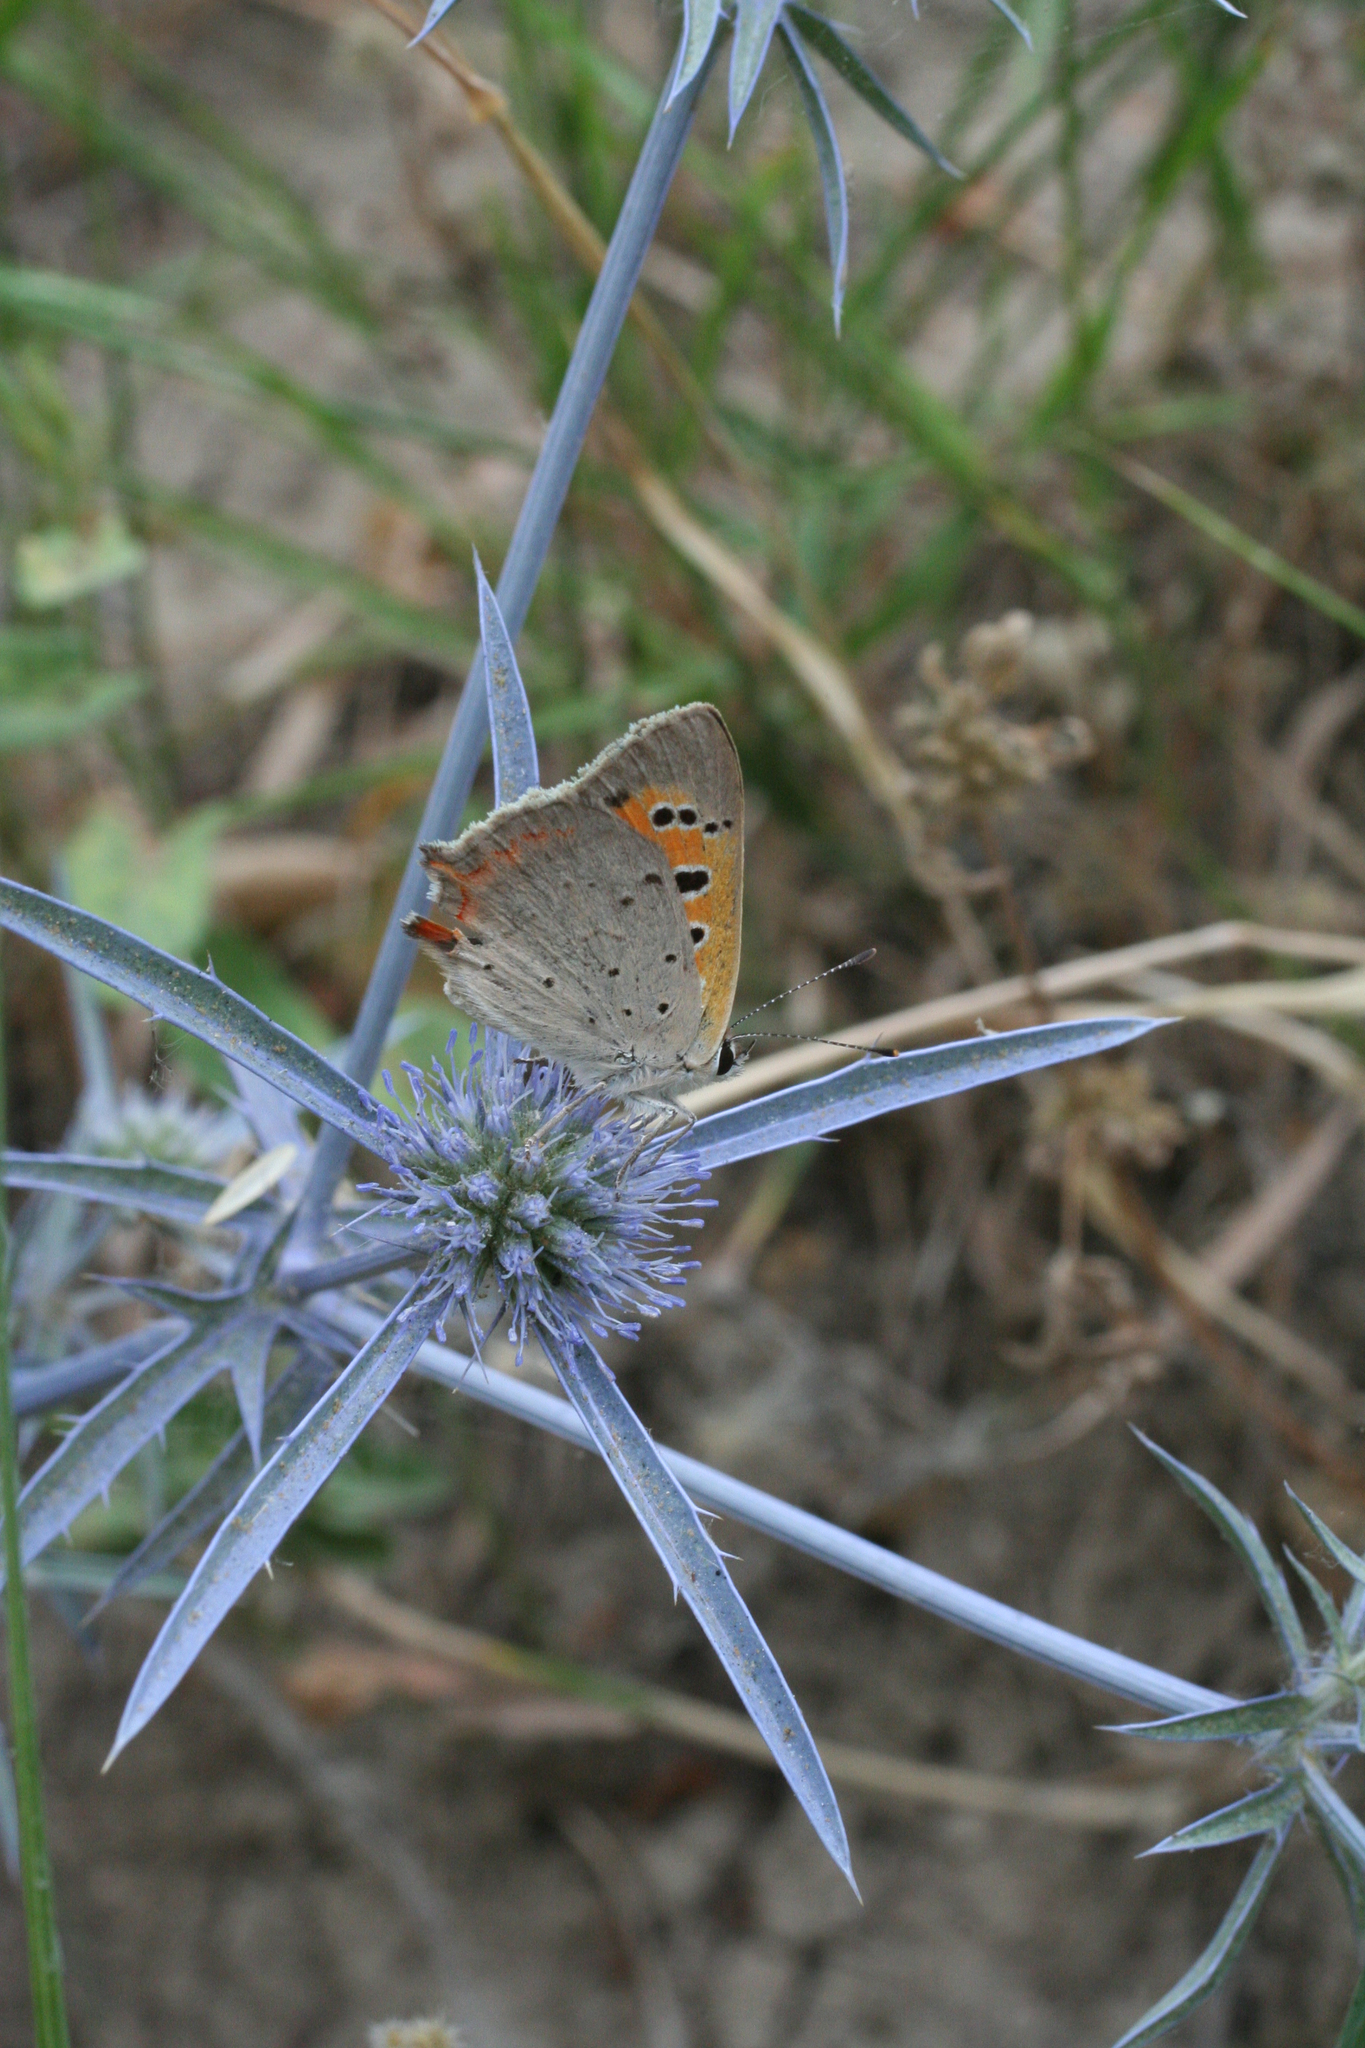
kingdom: Plantae
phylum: Tracheophyta
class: Magnoliopsida
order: Apiales
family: Apiaceae
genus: Eryngium
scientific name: Eryngium caeruleum
